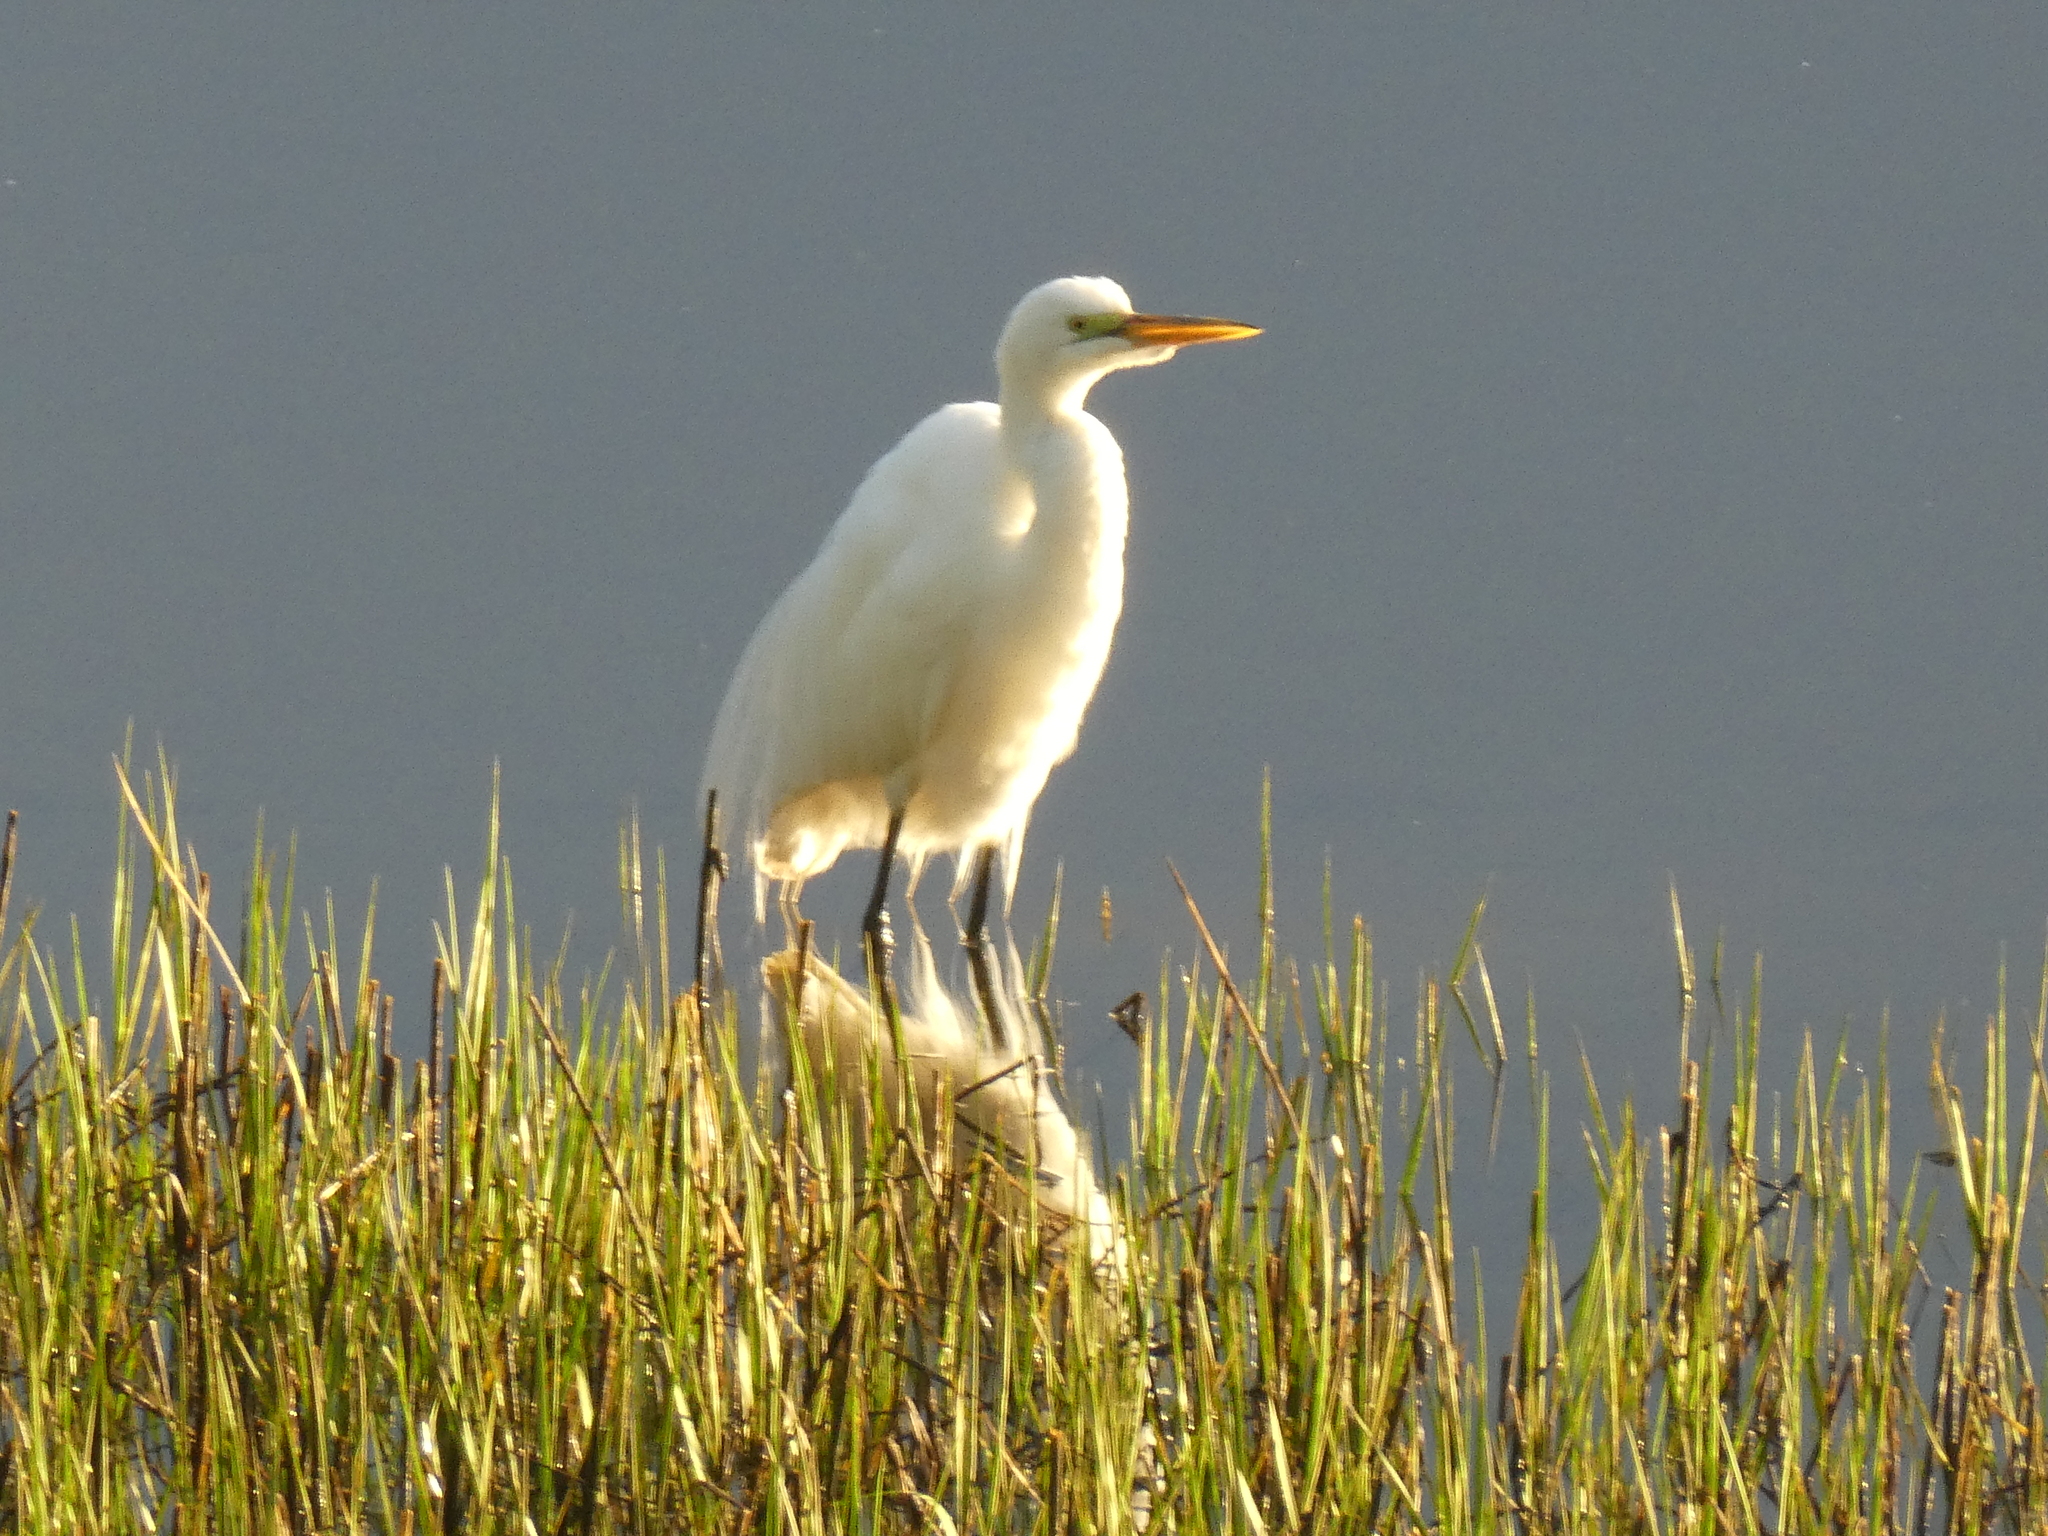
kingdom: Animalia
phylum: Chordata
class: Aves
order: Pelecaniformes
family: Ardeidae
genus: Ardea
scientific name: Ardea alba
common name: Great egret
